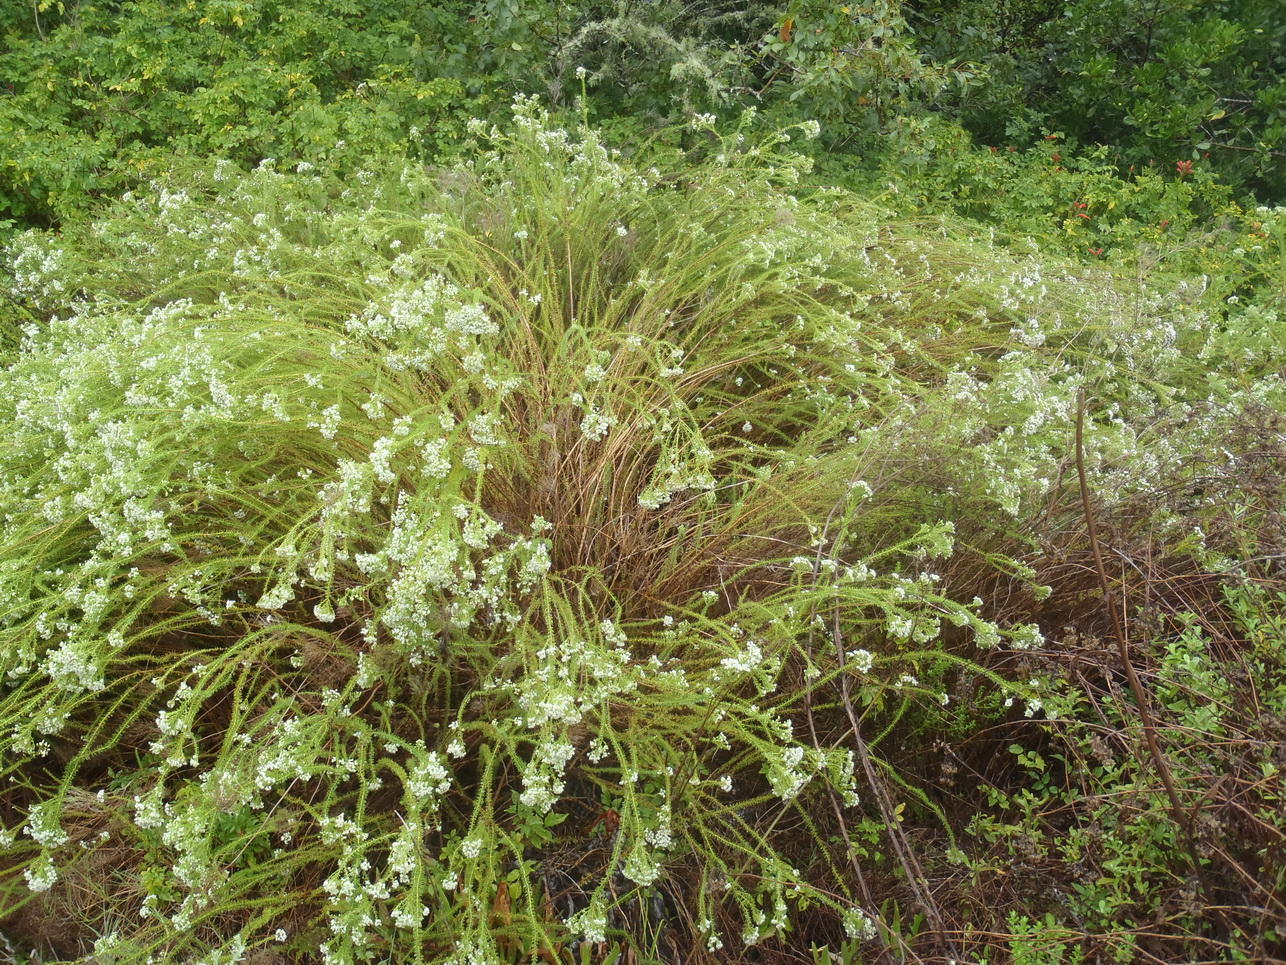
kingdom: Plantae
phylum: Tracheophyta
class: Magnoliopsida
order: Lamiales
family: Scrophulariaceae
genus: Selago
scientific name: Selago corymbosa
